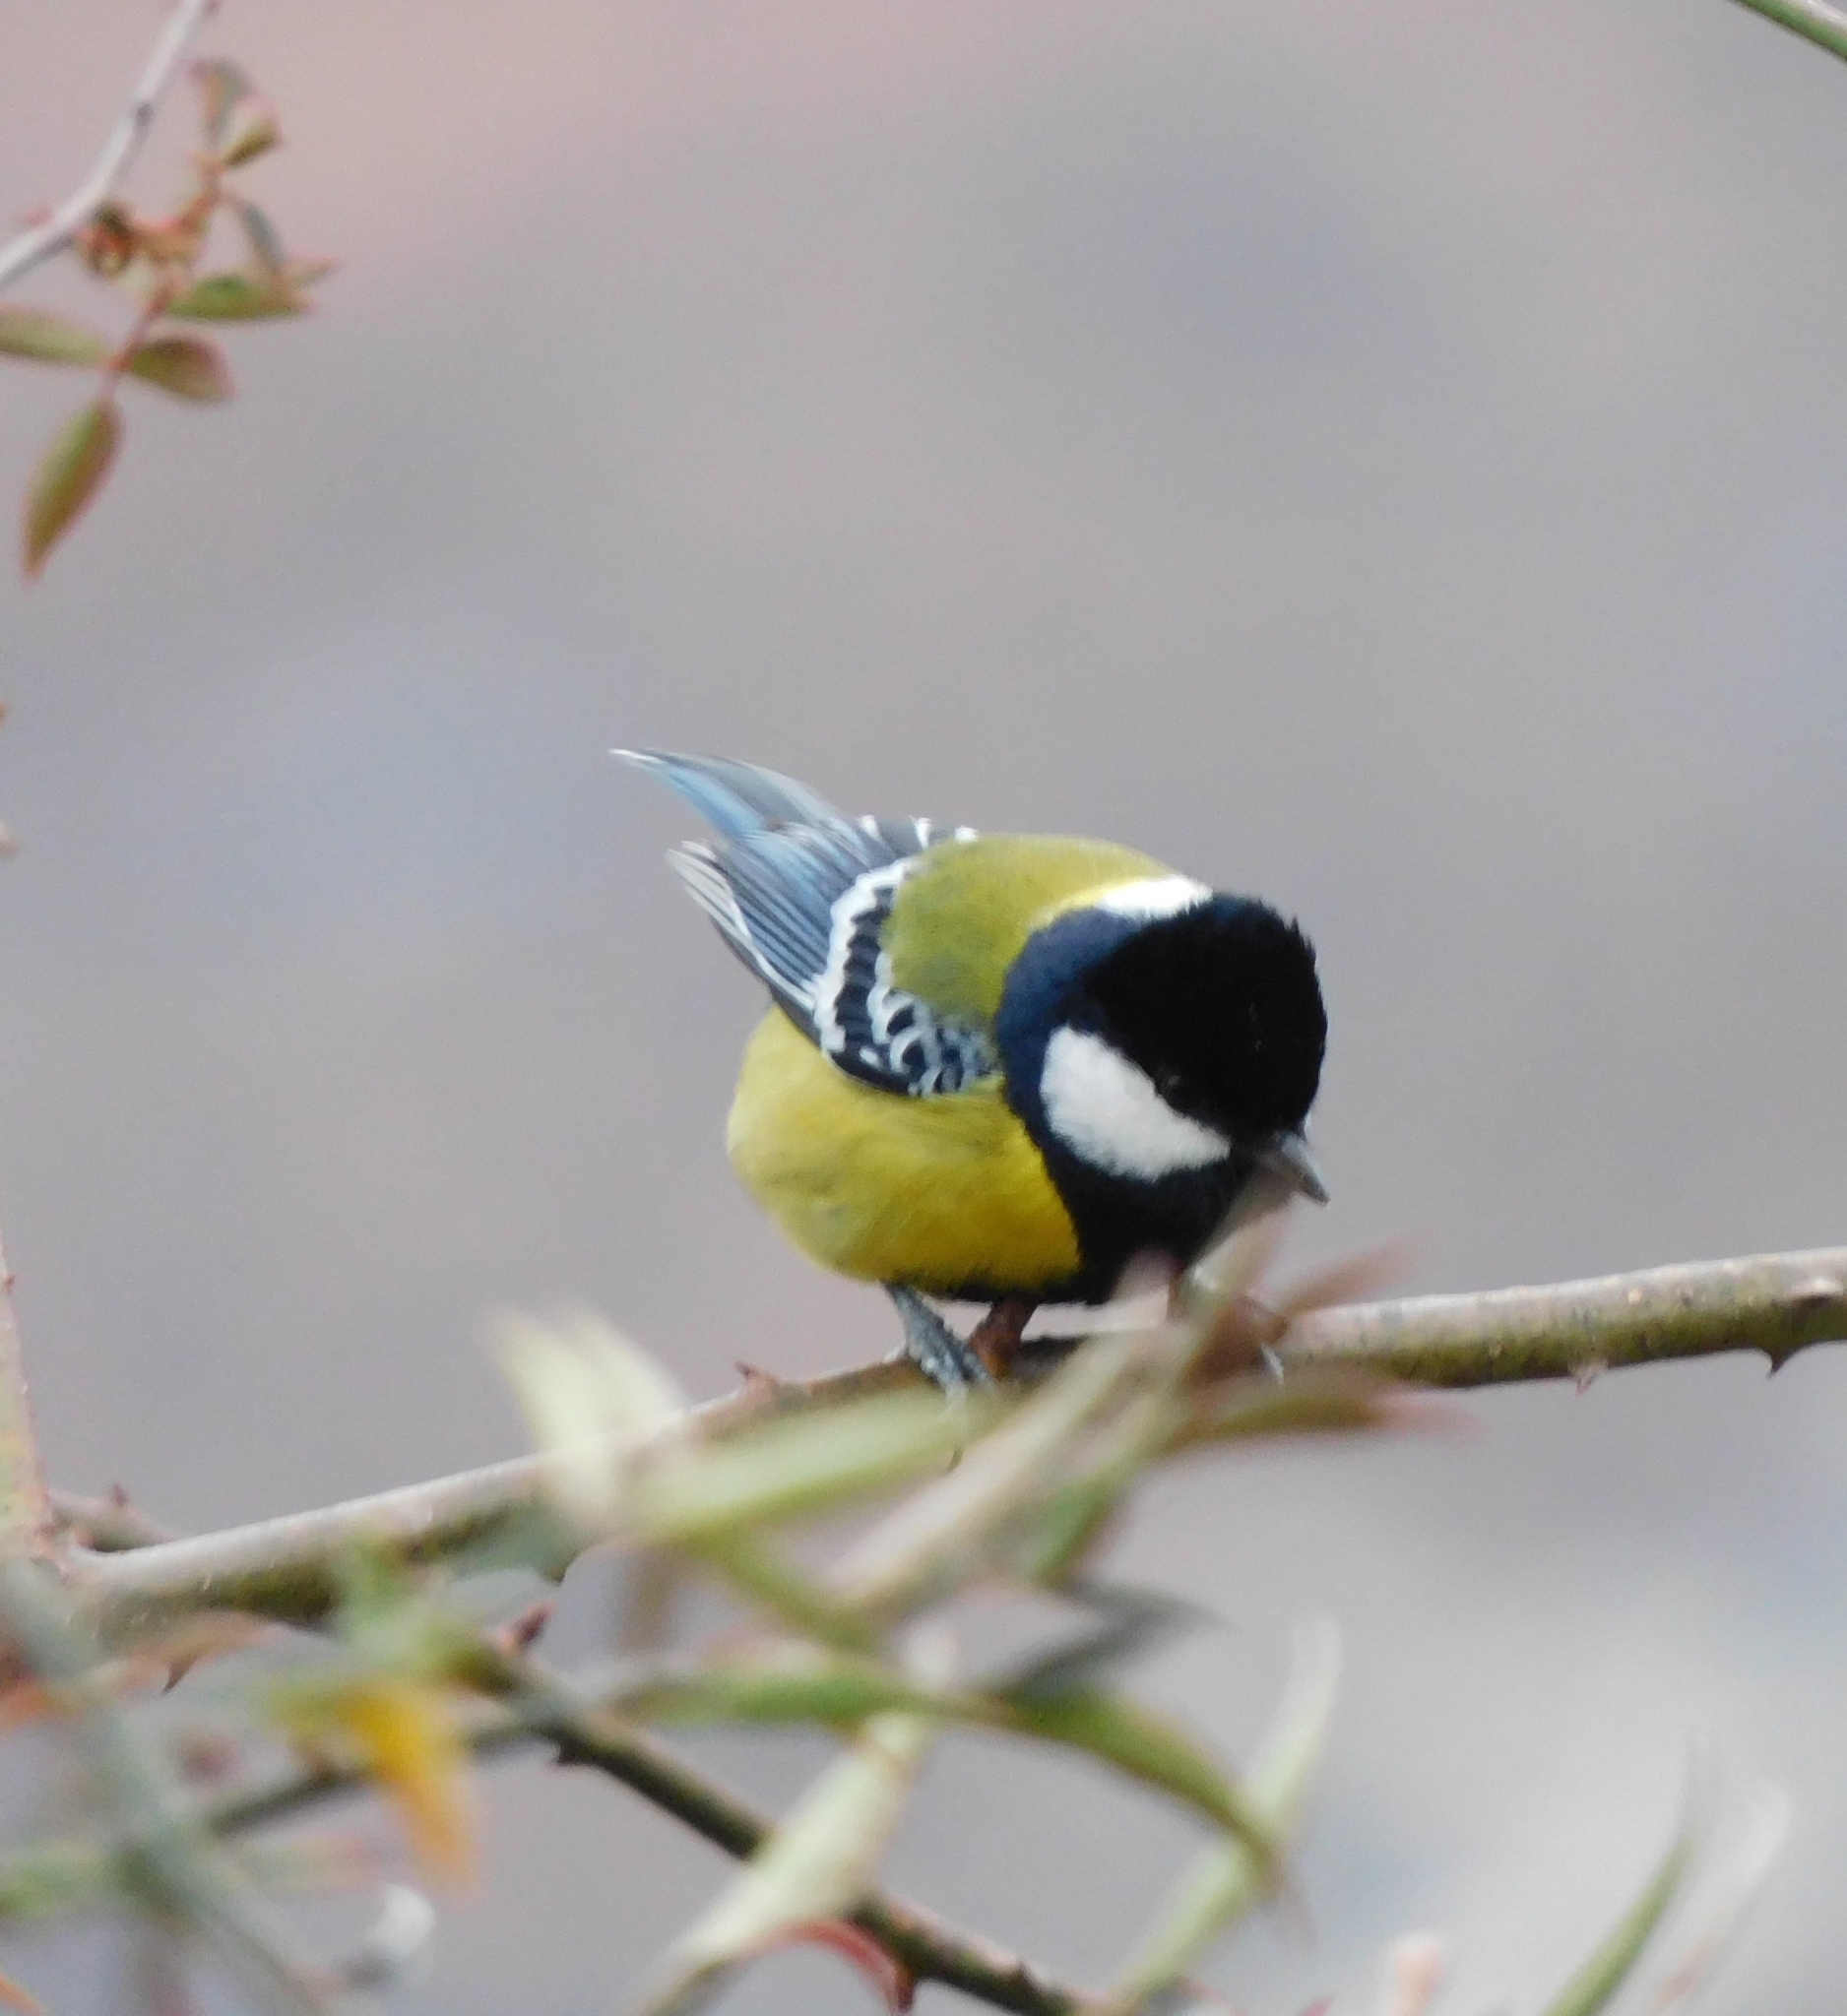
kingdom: Animalia
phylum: Chordata
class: Aves
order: Passeriformes
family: Paridae
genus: Parus
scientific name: Parus monticolus
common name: Green-backed tit
